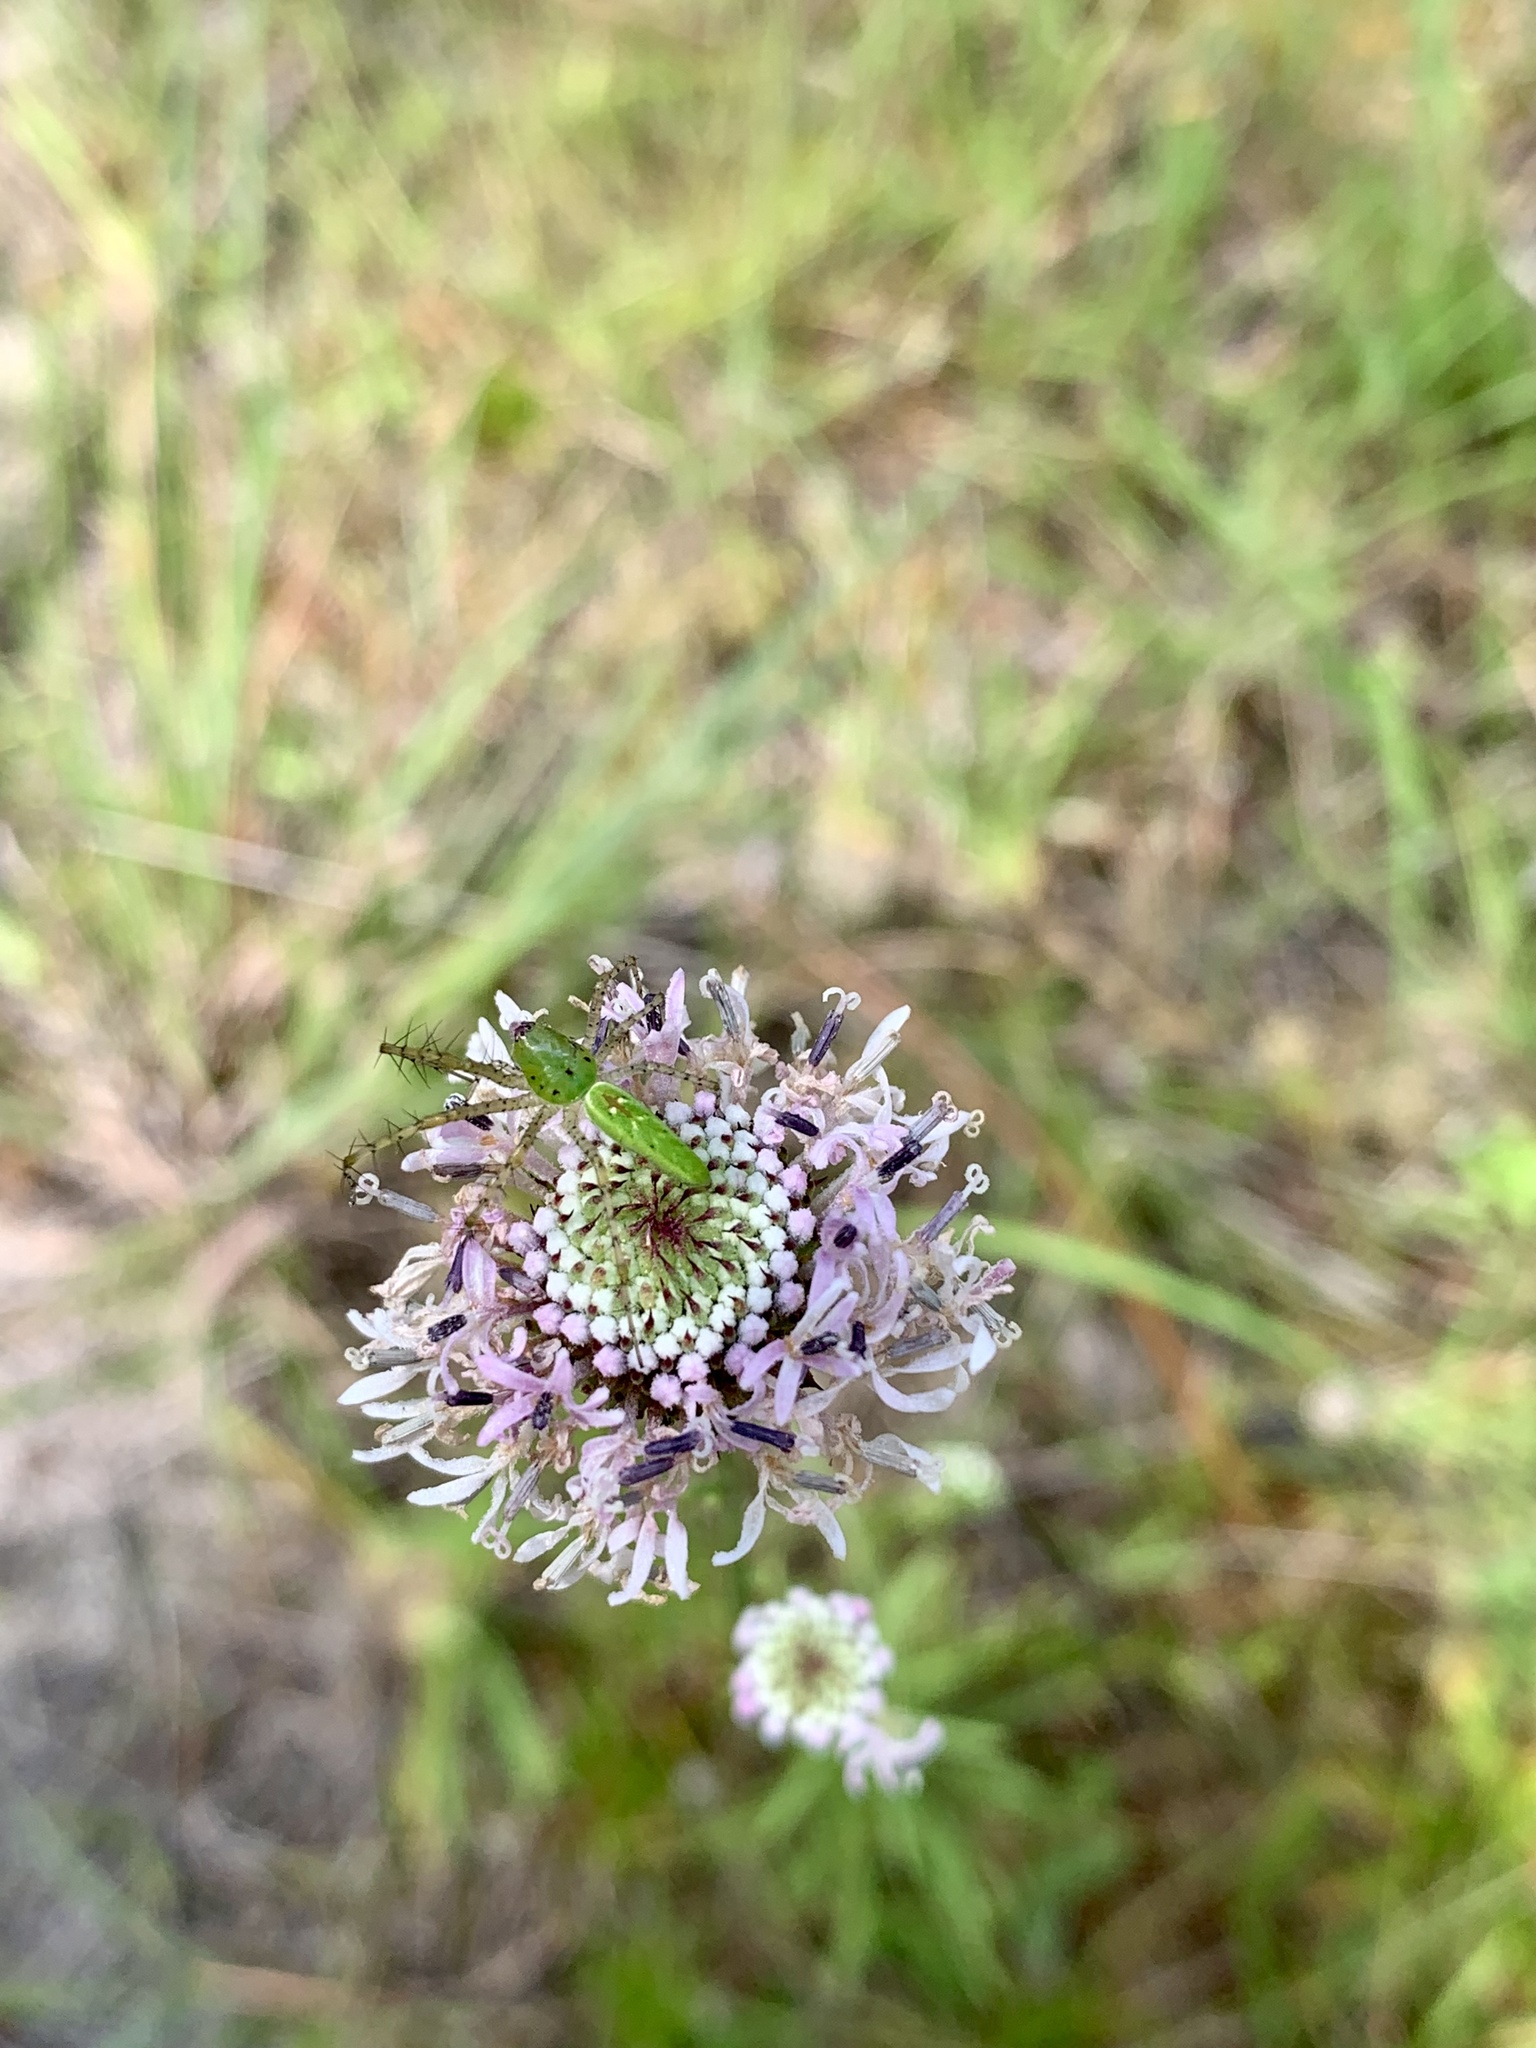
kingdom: Plantae
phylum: Tracheophyta
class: Magnoliopsida
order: Asterales
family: Asteraceae
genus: Marshallia
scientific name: Marshallia graminifolia
